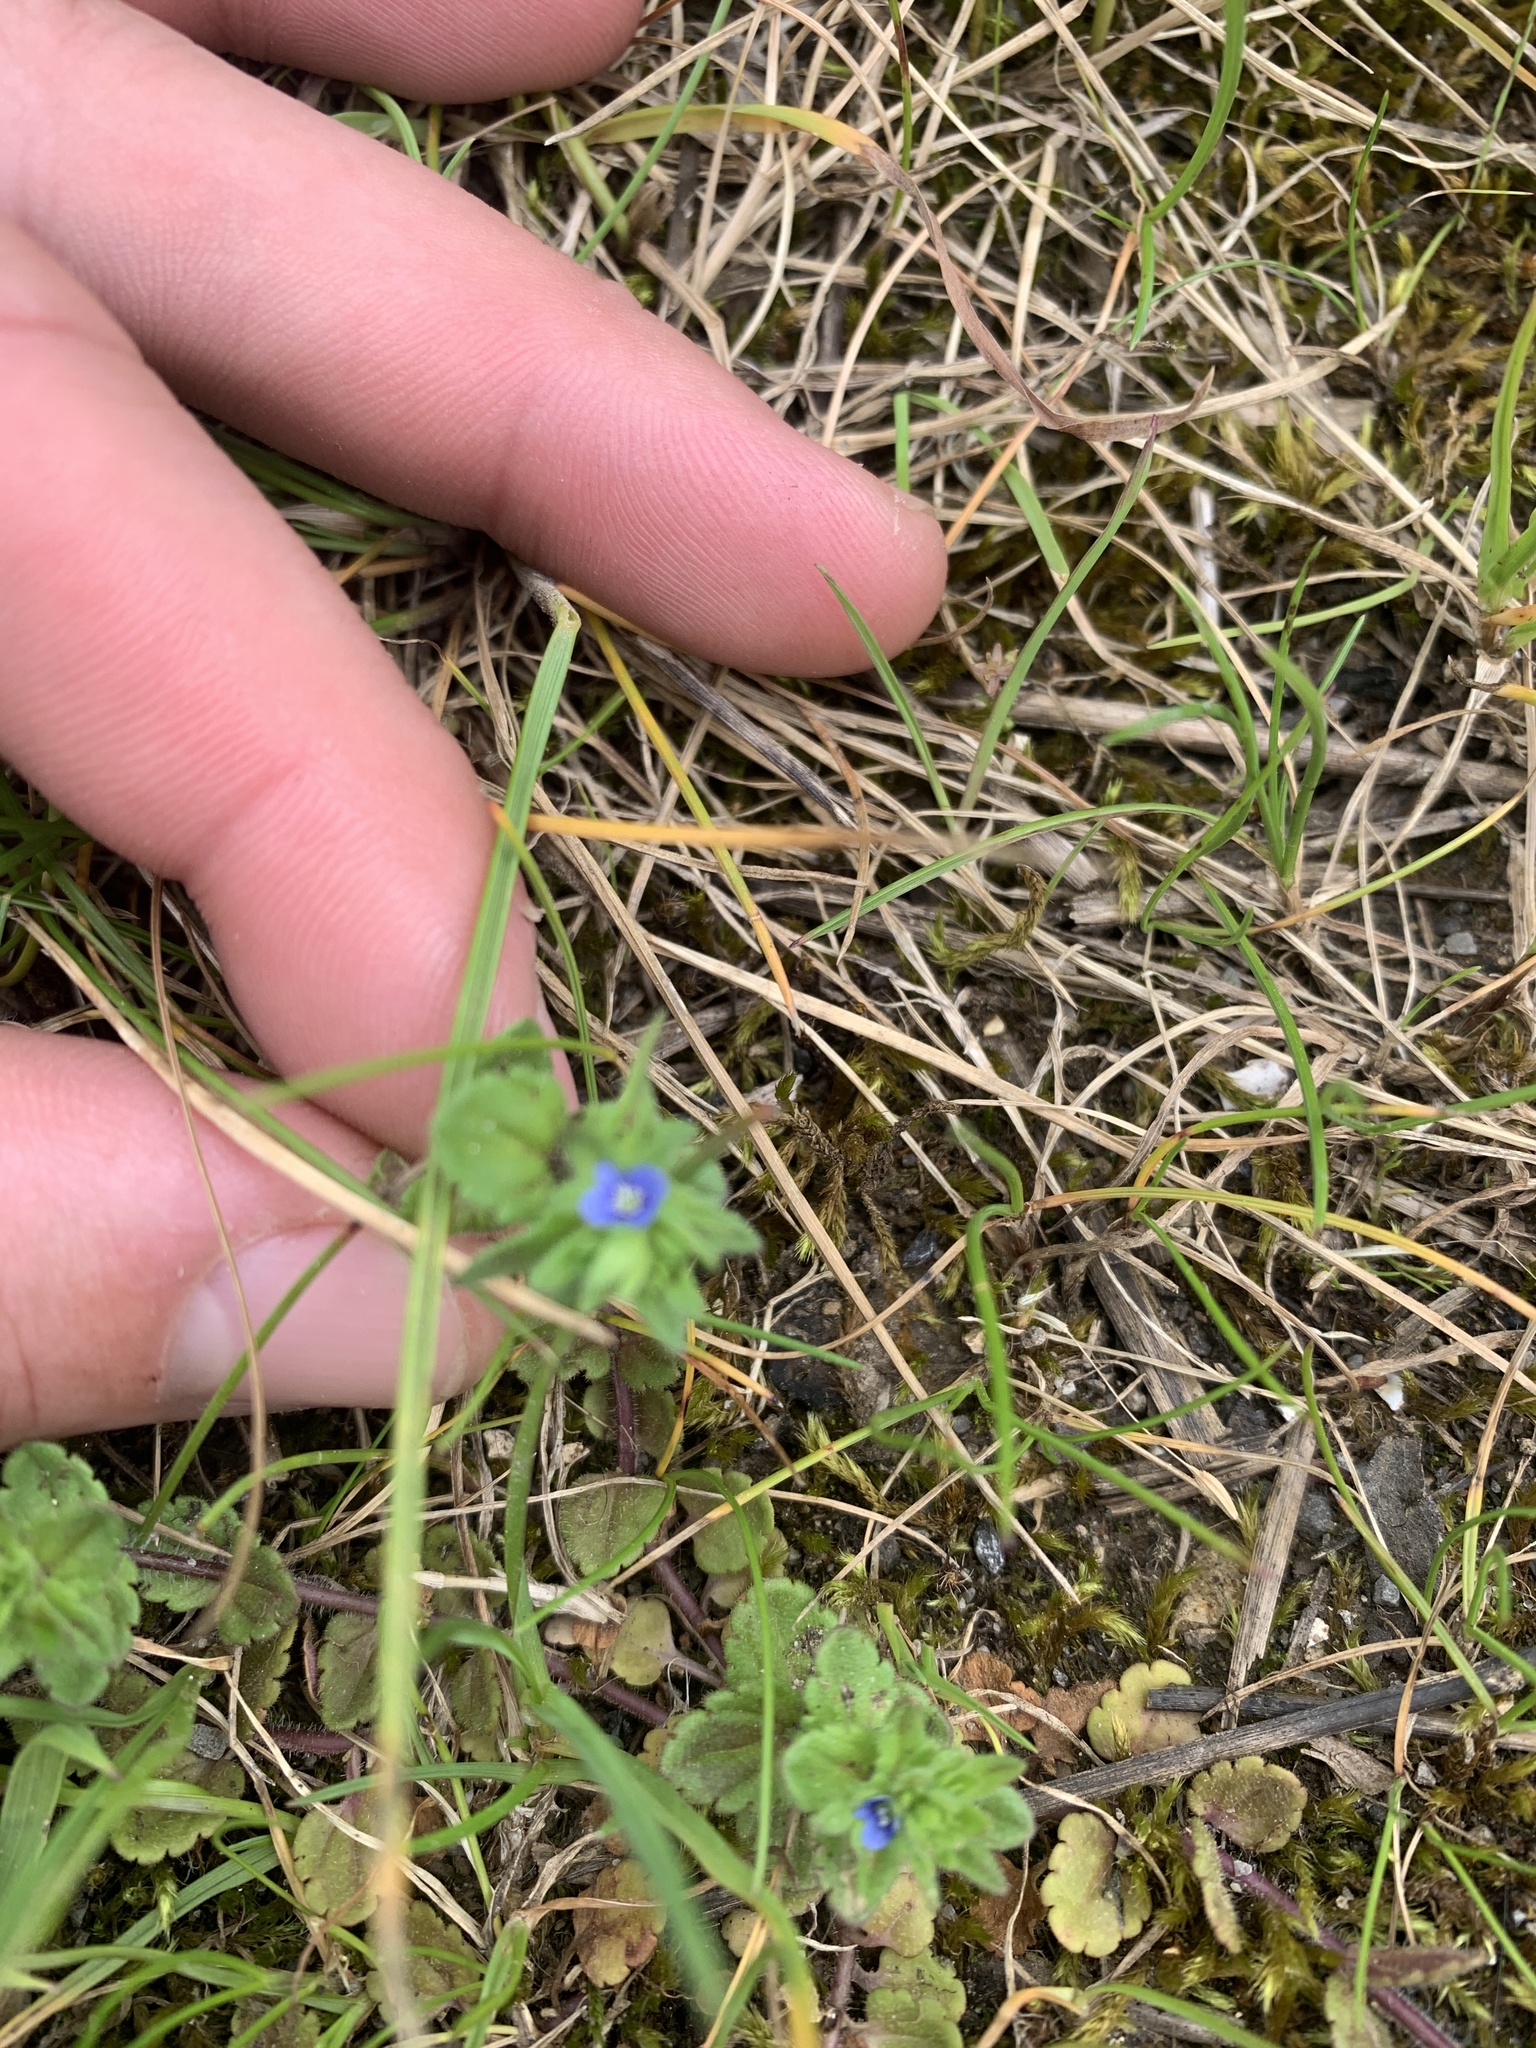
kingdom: Plantae
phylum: Tracheophyta
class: Magnoliopsida
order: Lamiales
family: Plantaginaceae
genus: Veronica
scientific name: Veronica arvensis
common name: Corn speedwell
